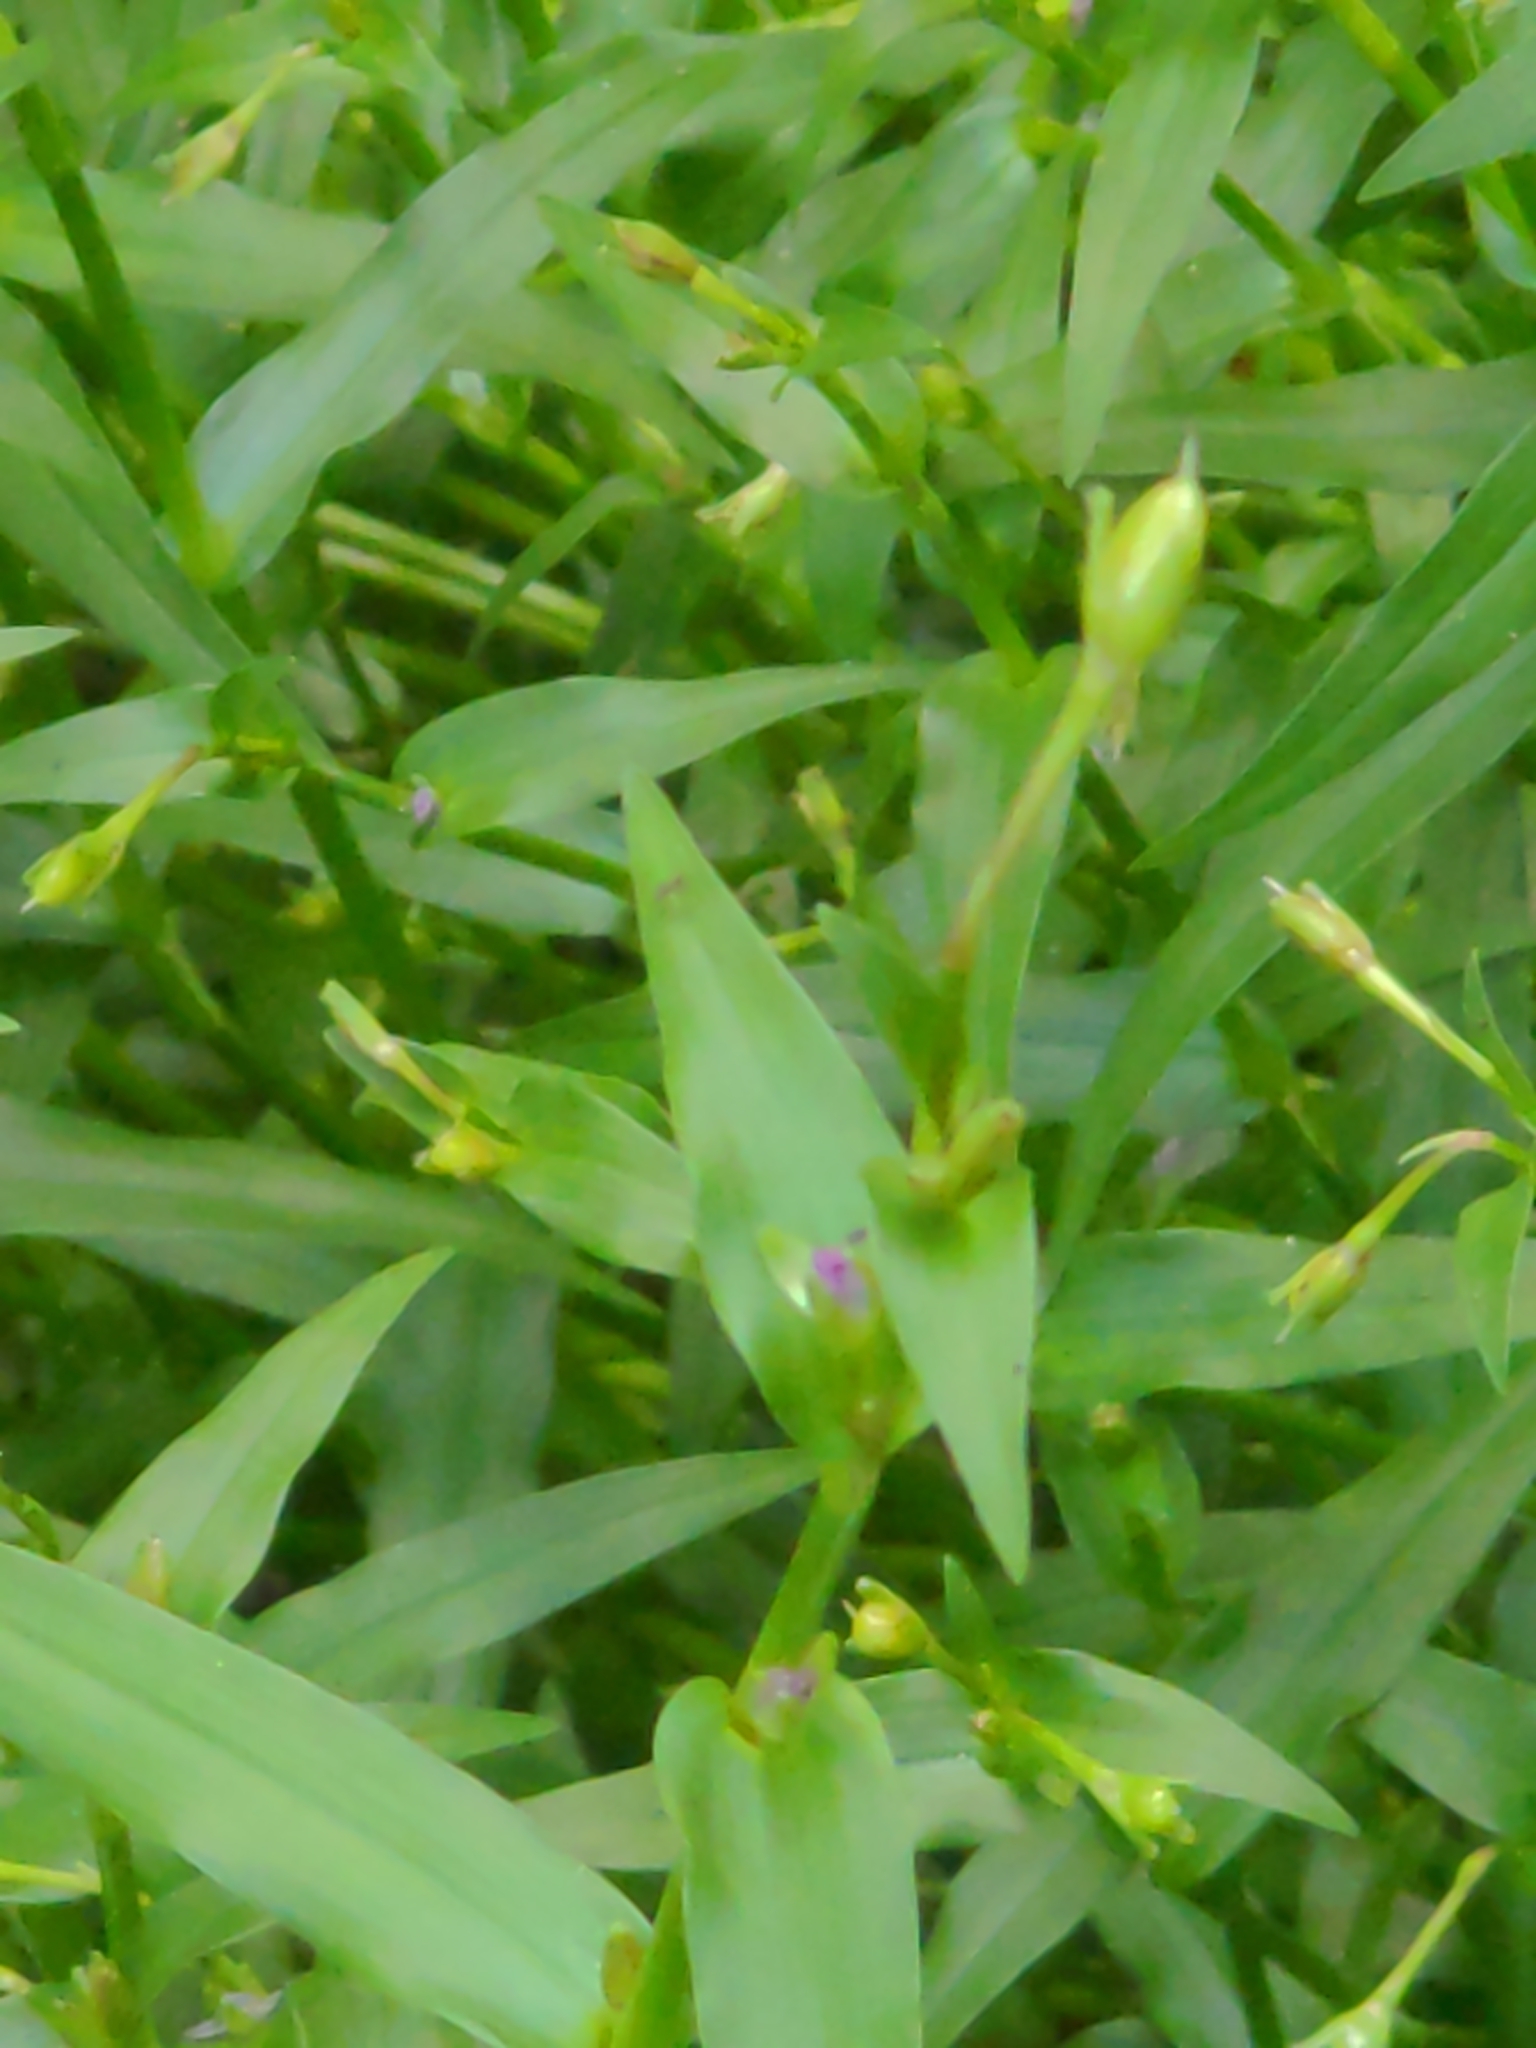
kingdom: Plantae
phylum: Tracheophyta
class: Liliopsida
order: Commelinales
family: Commelinaceae
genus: Murdannia
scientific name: Murdannia keisak
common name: Wartremoving herb
